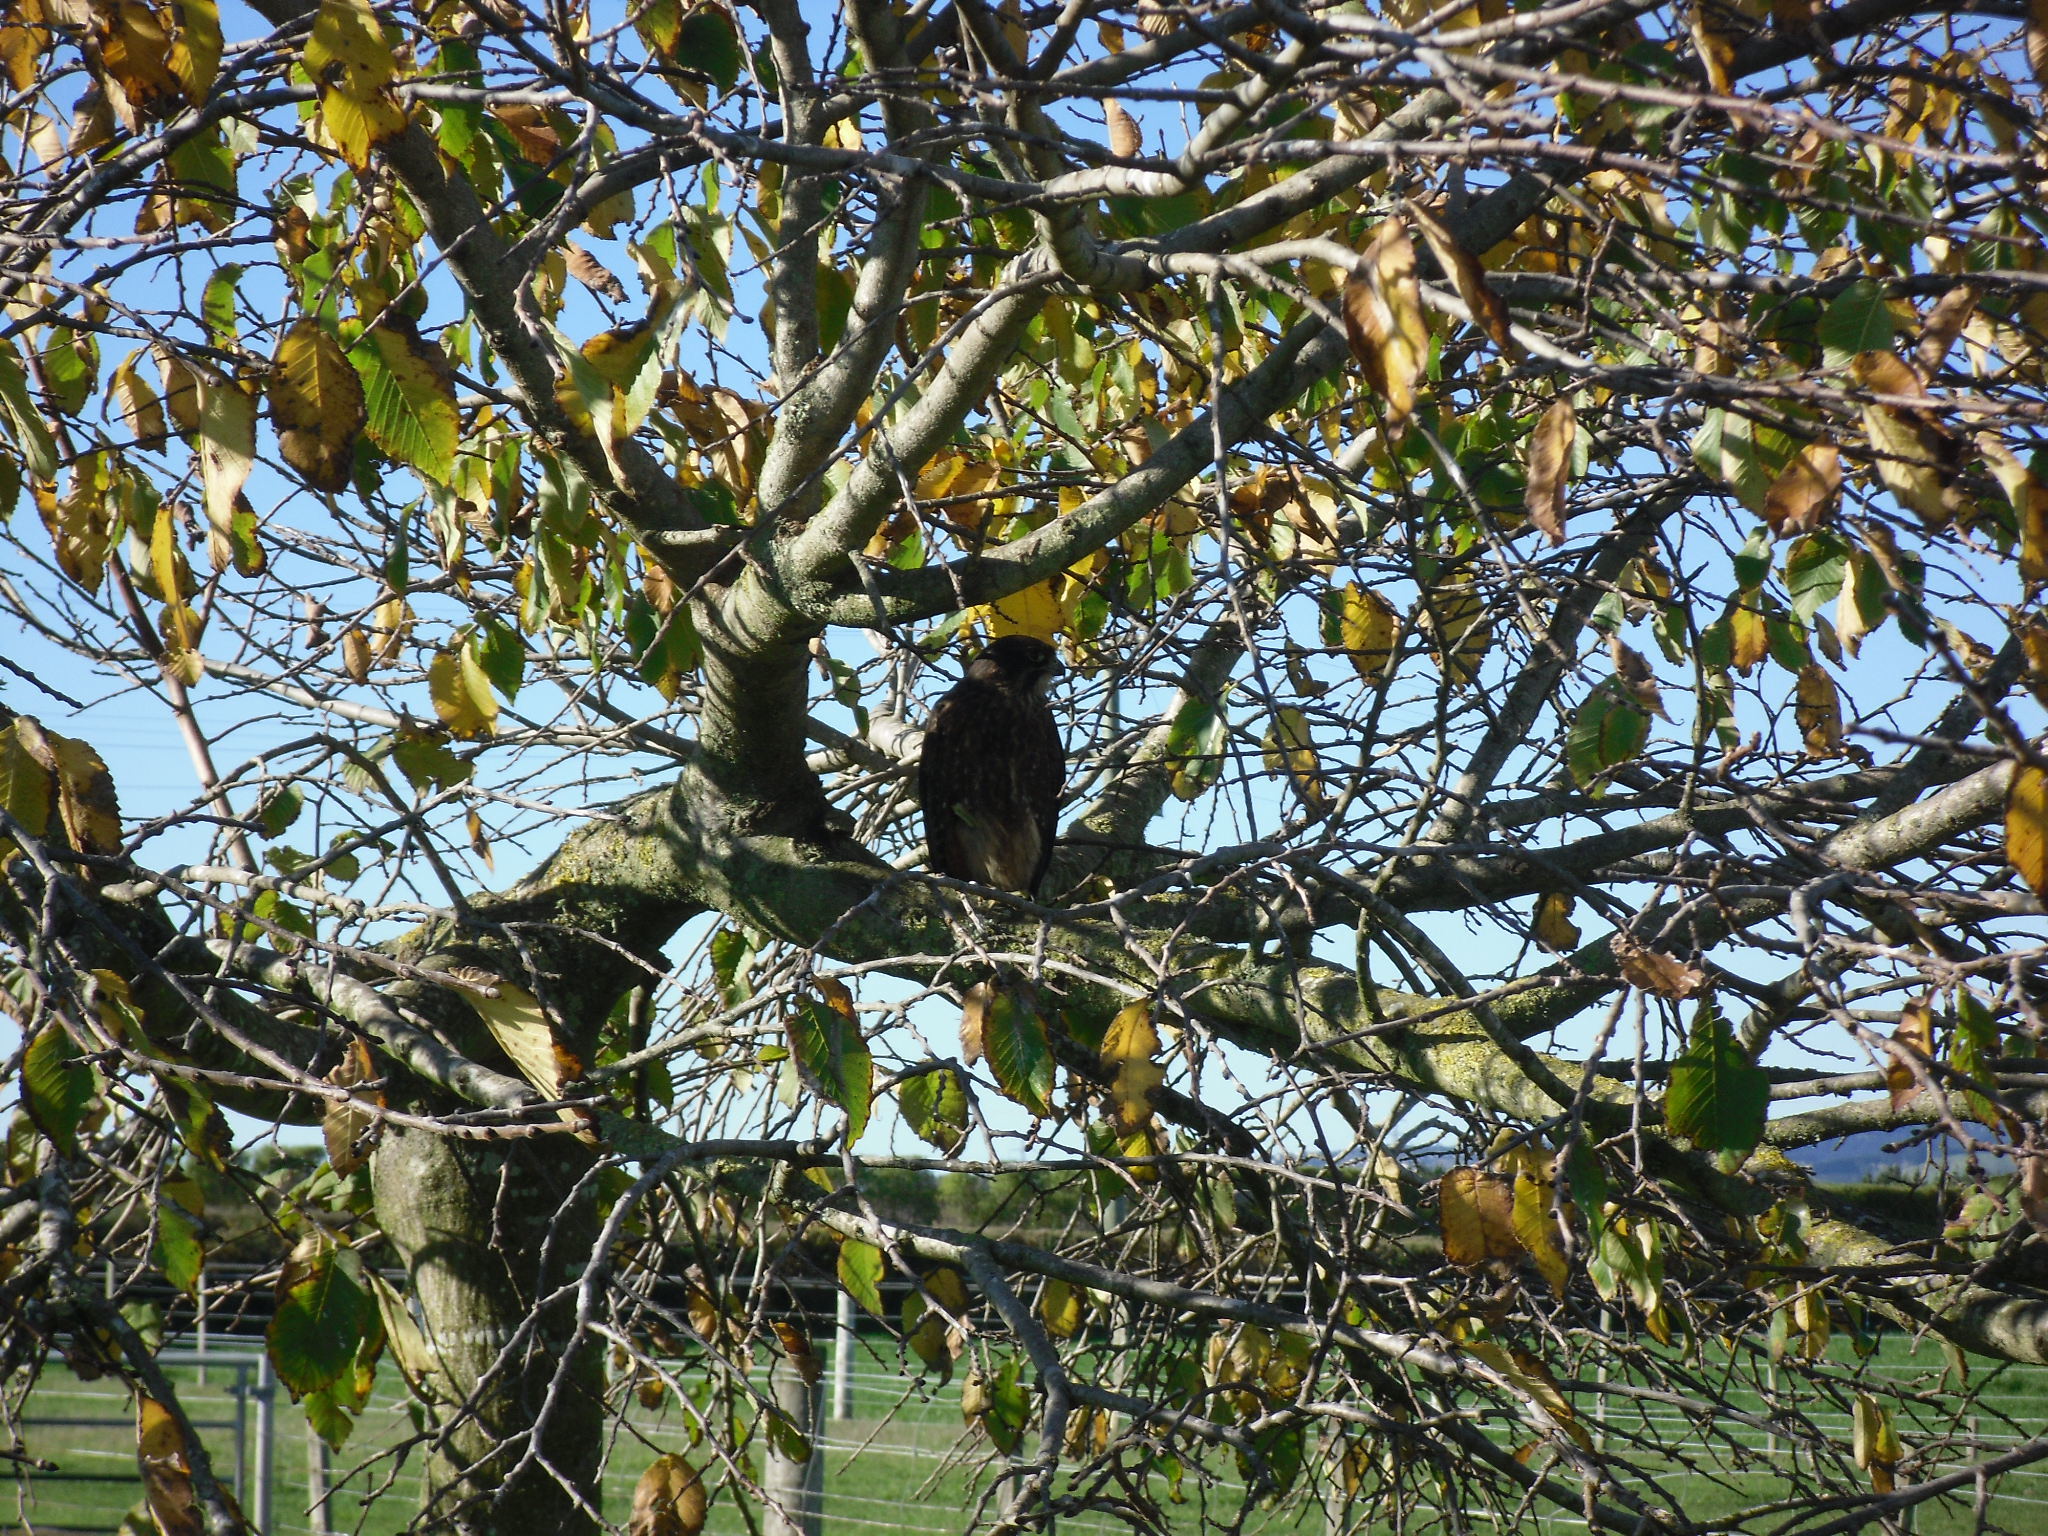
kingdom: Animalia
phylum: Chordata
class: Aves
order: Falconiformes
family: Falconidae
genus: Falco
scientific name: Falco novaeseelandiae
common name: New zealand falcon
